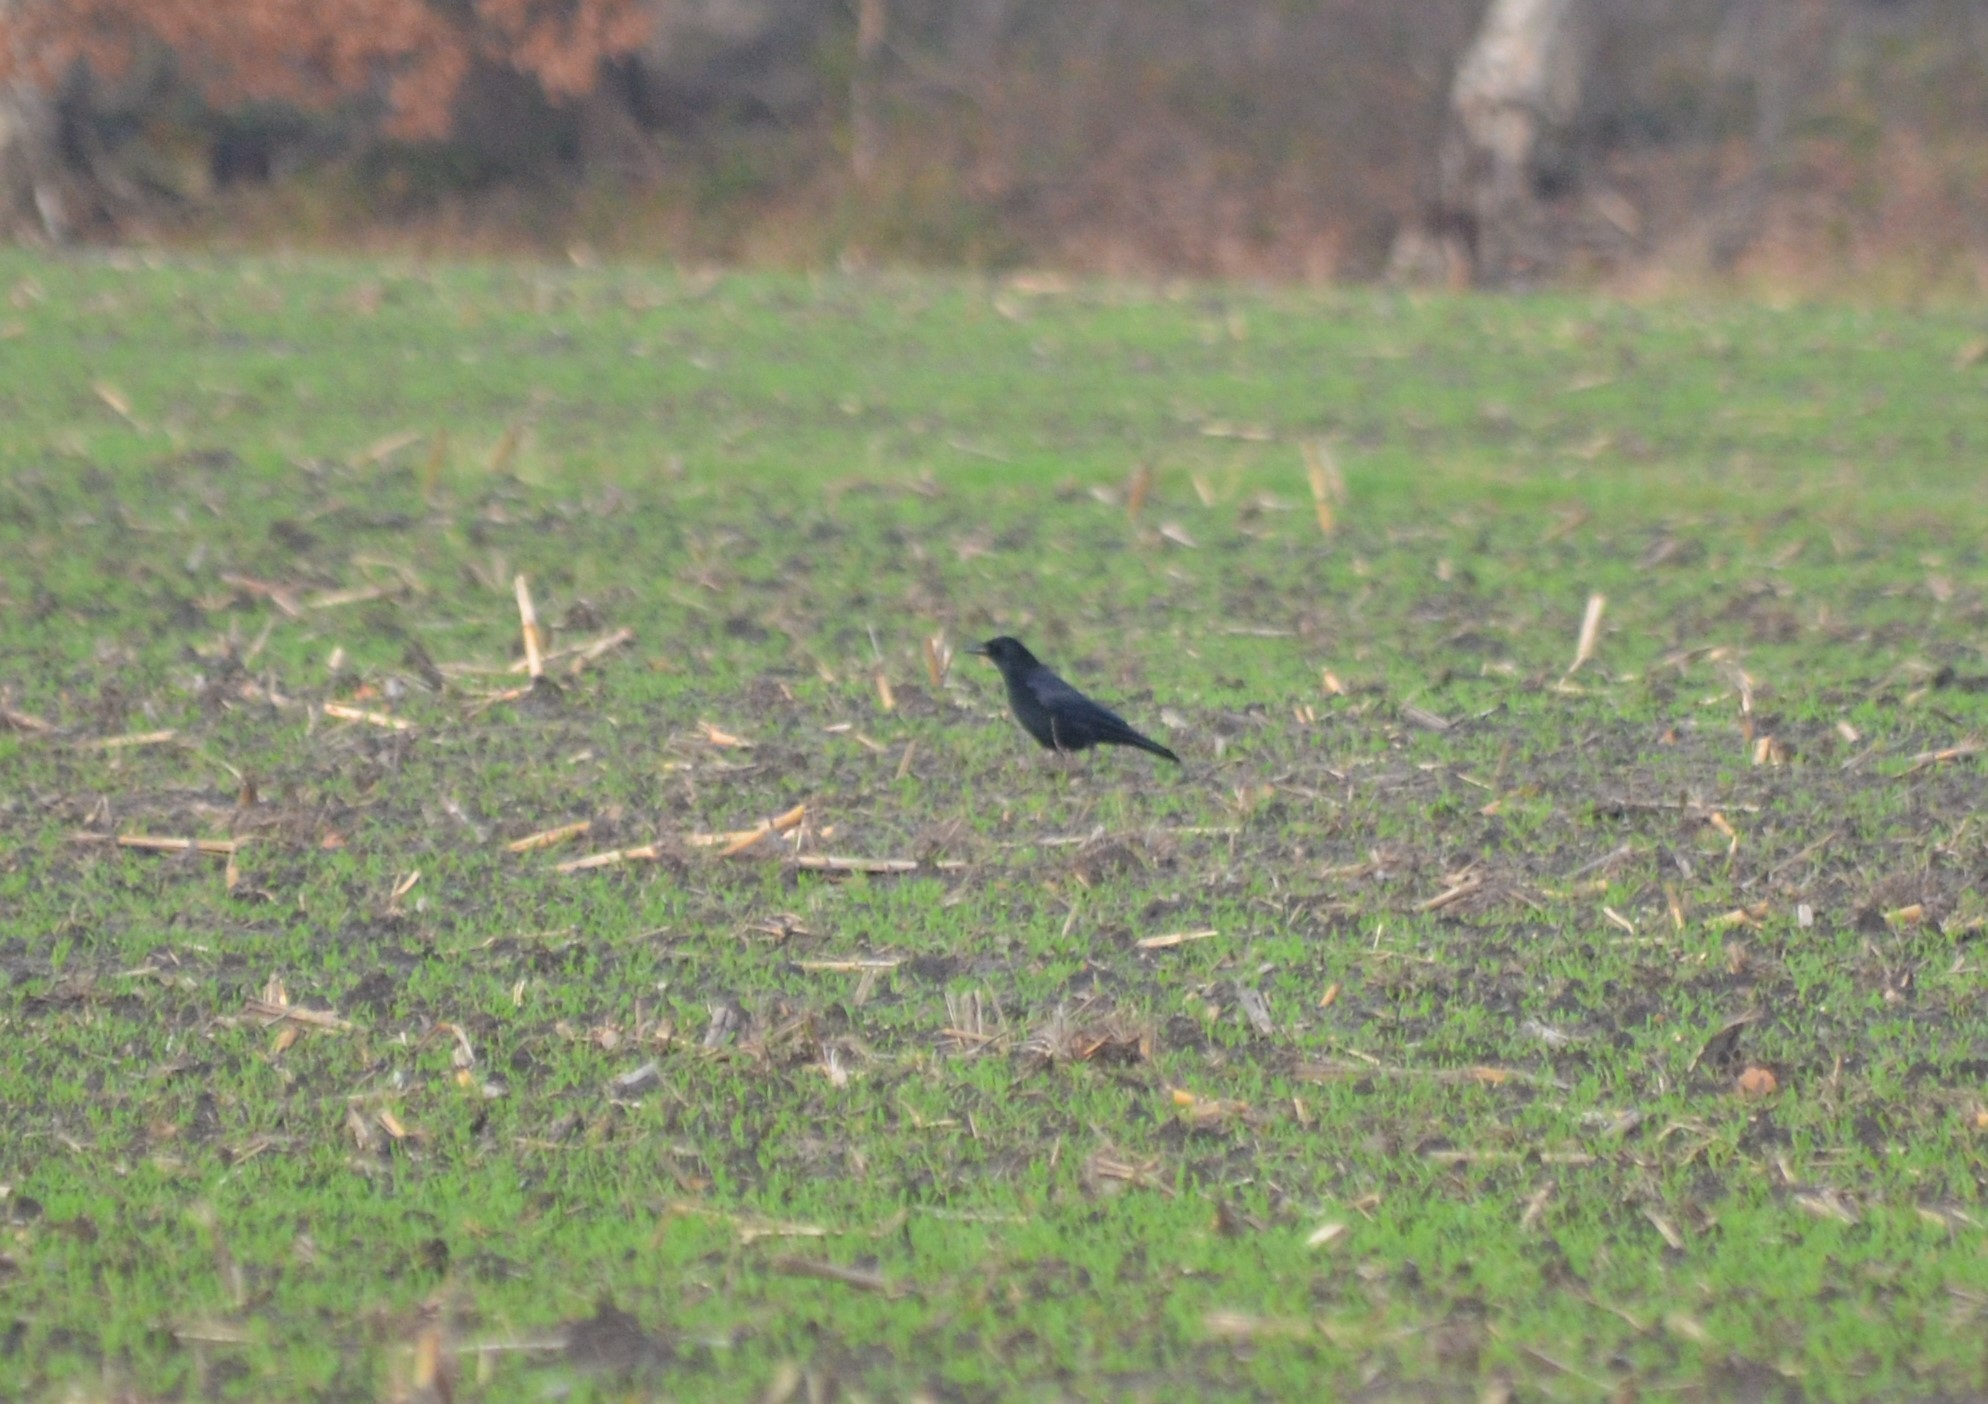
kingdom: Animalia
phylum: Chordata
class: Aves
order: Passeriformes
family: Corvidae
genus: Corvus
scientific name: Corvus corone
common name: Carrion crow
